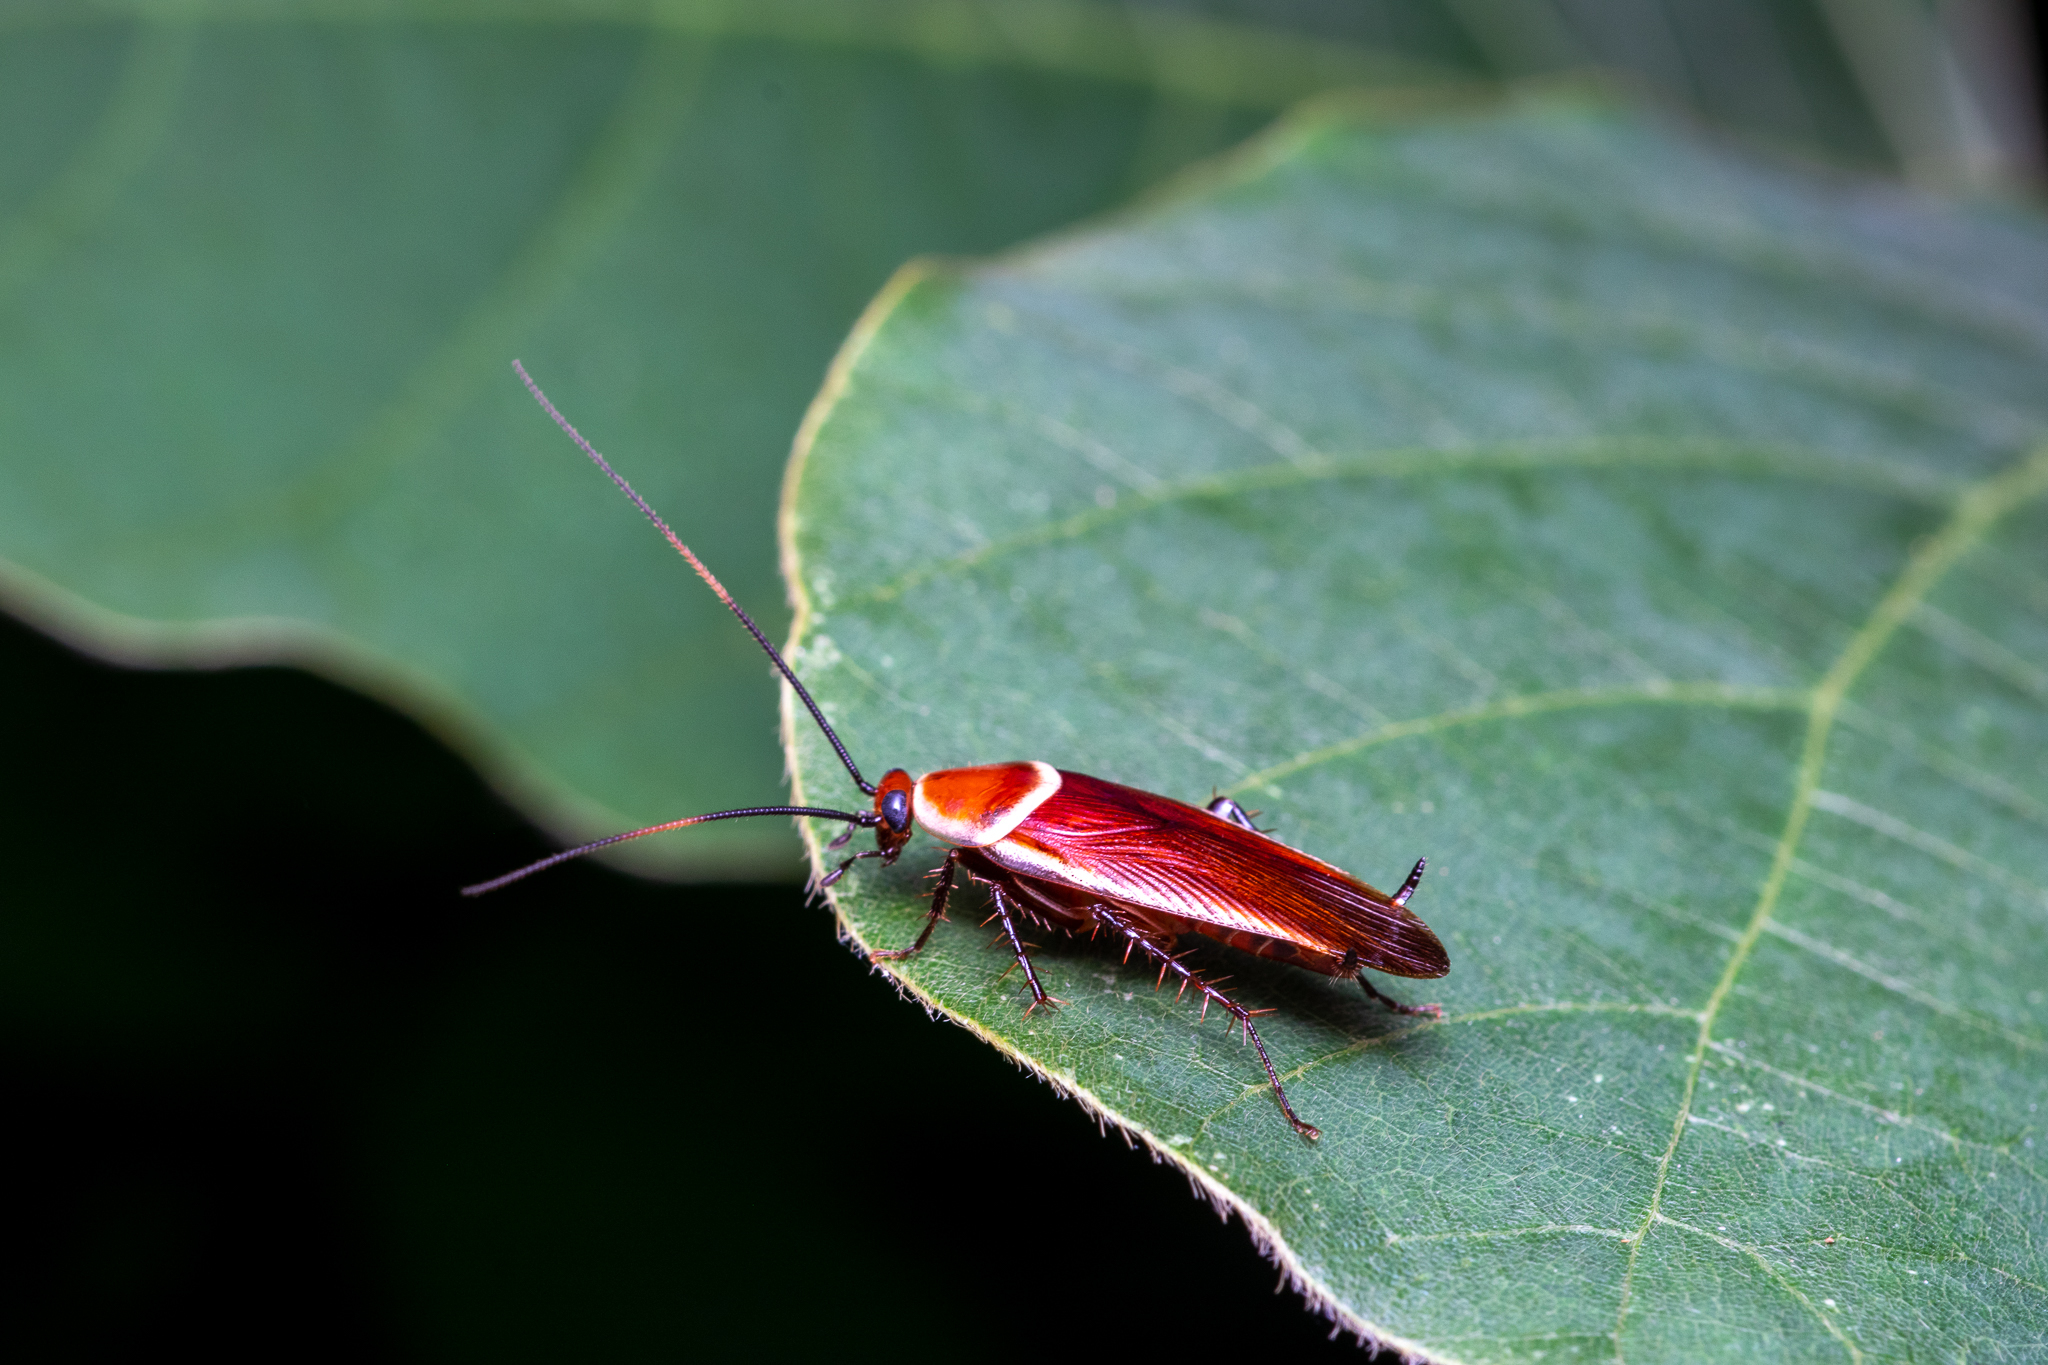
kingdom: Animalia
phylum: Arthropoda
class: Insecta
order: Blattodea
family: Ectobiidae
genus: Pseudomops
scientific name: Pseudomops septentrionalis
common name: Pale-bordered field cockroach
